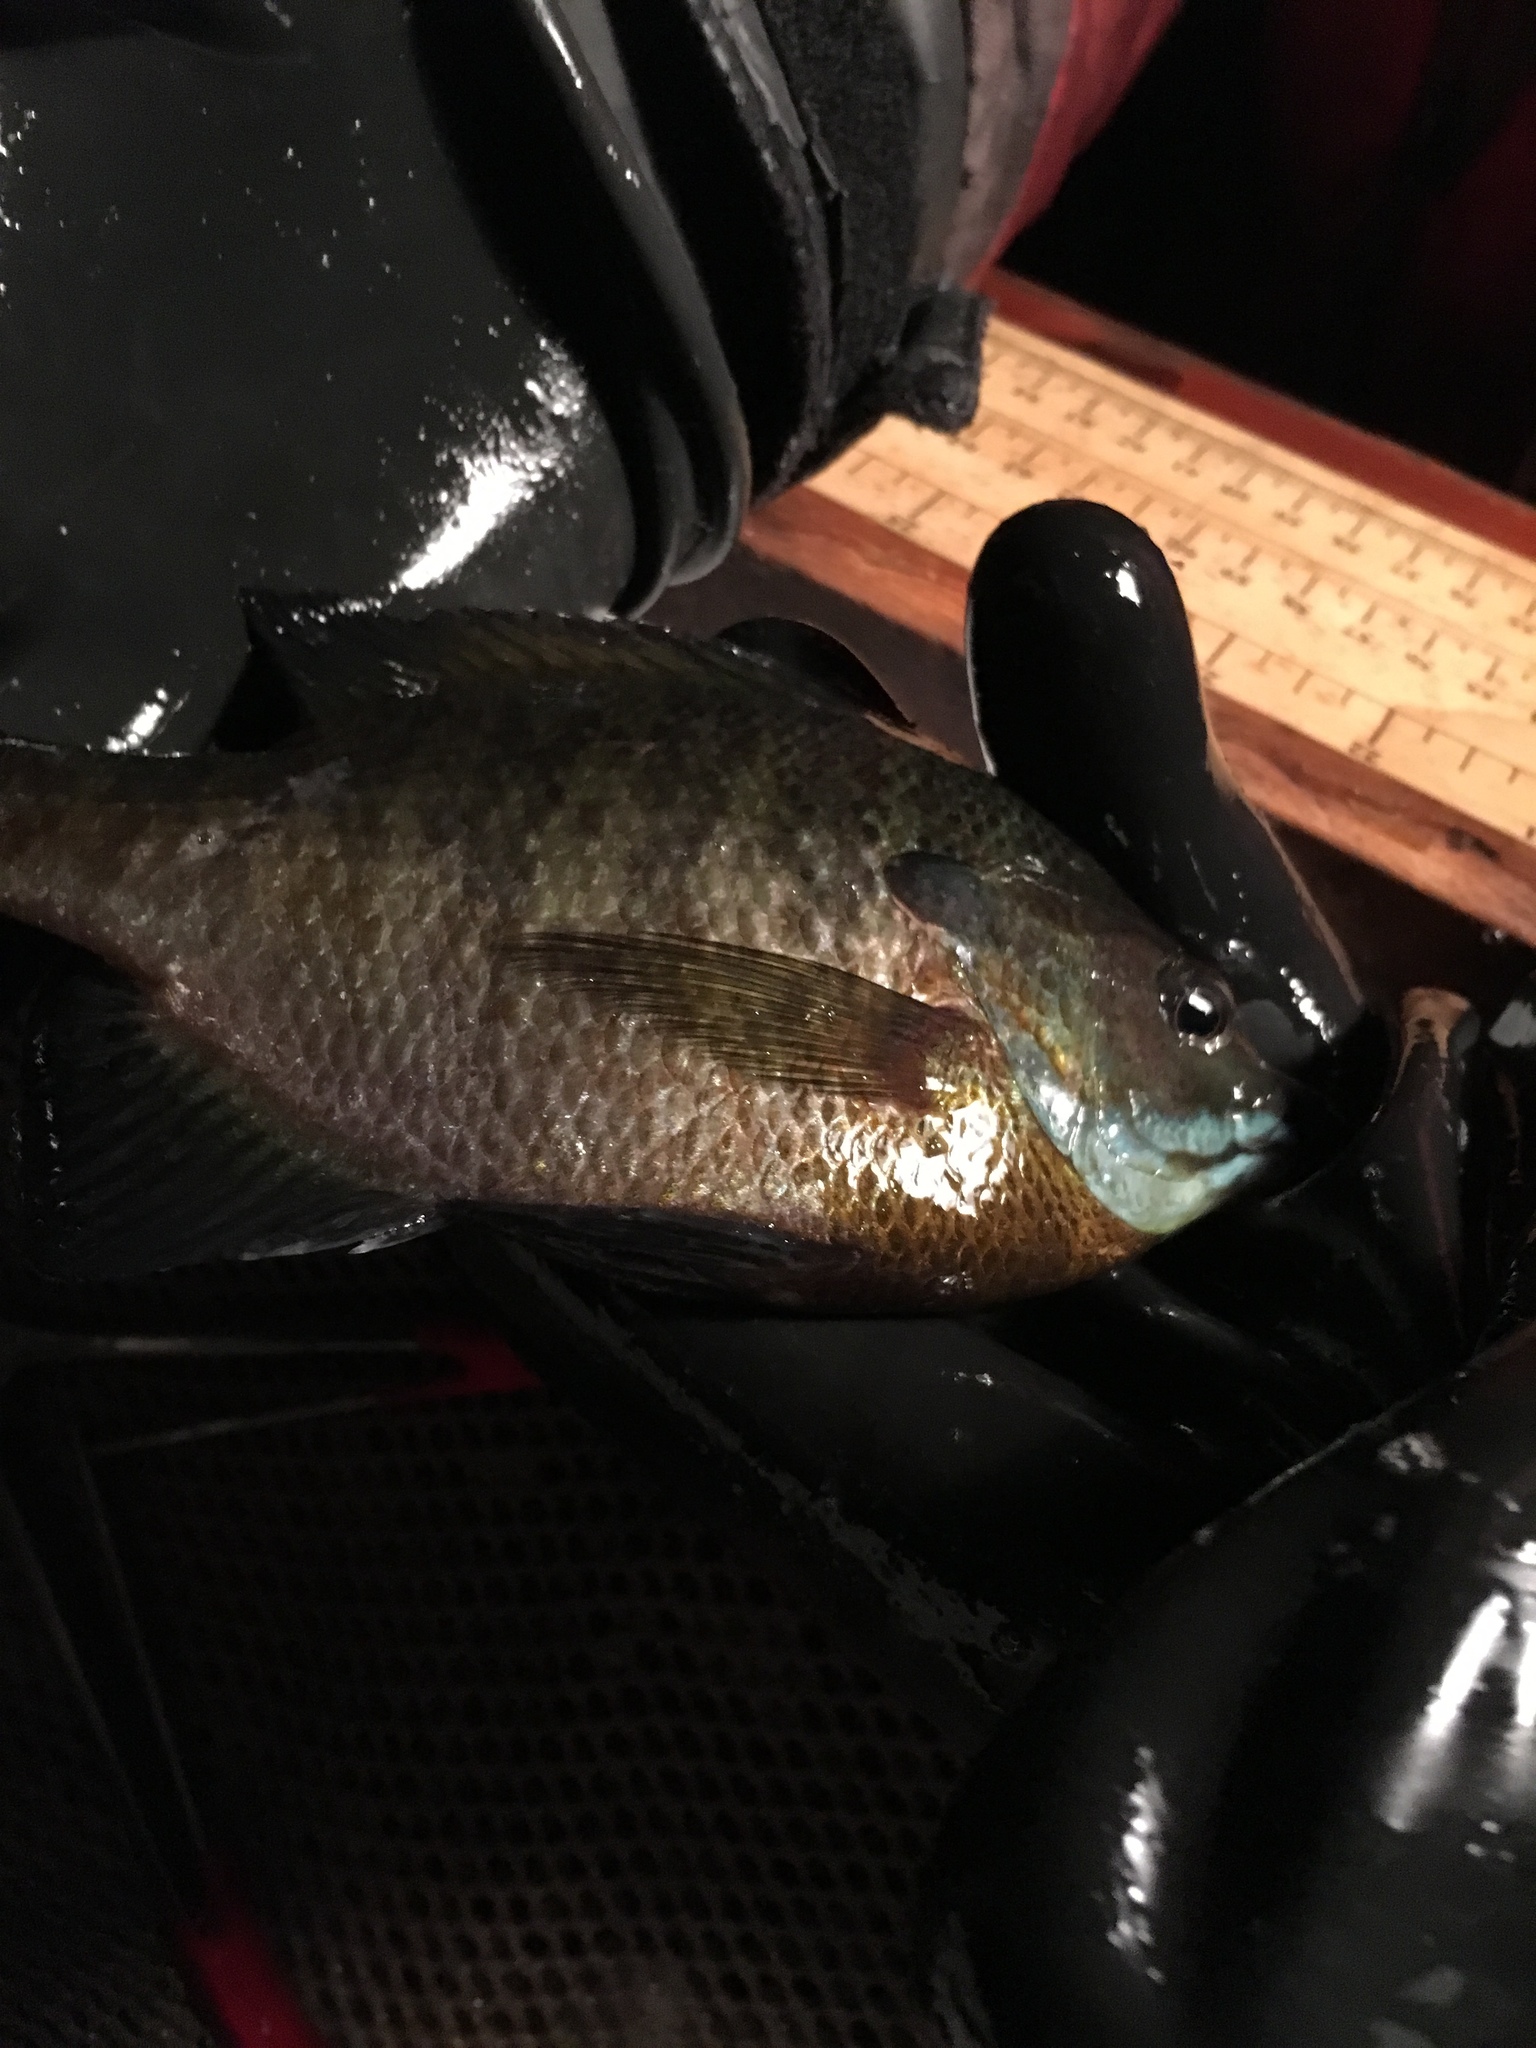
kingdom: Animalia
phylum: Chordata
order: Perciformes
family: Centrarchidae
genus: Lepomis
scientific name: Lepomis macrochirus
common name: Bluegill
